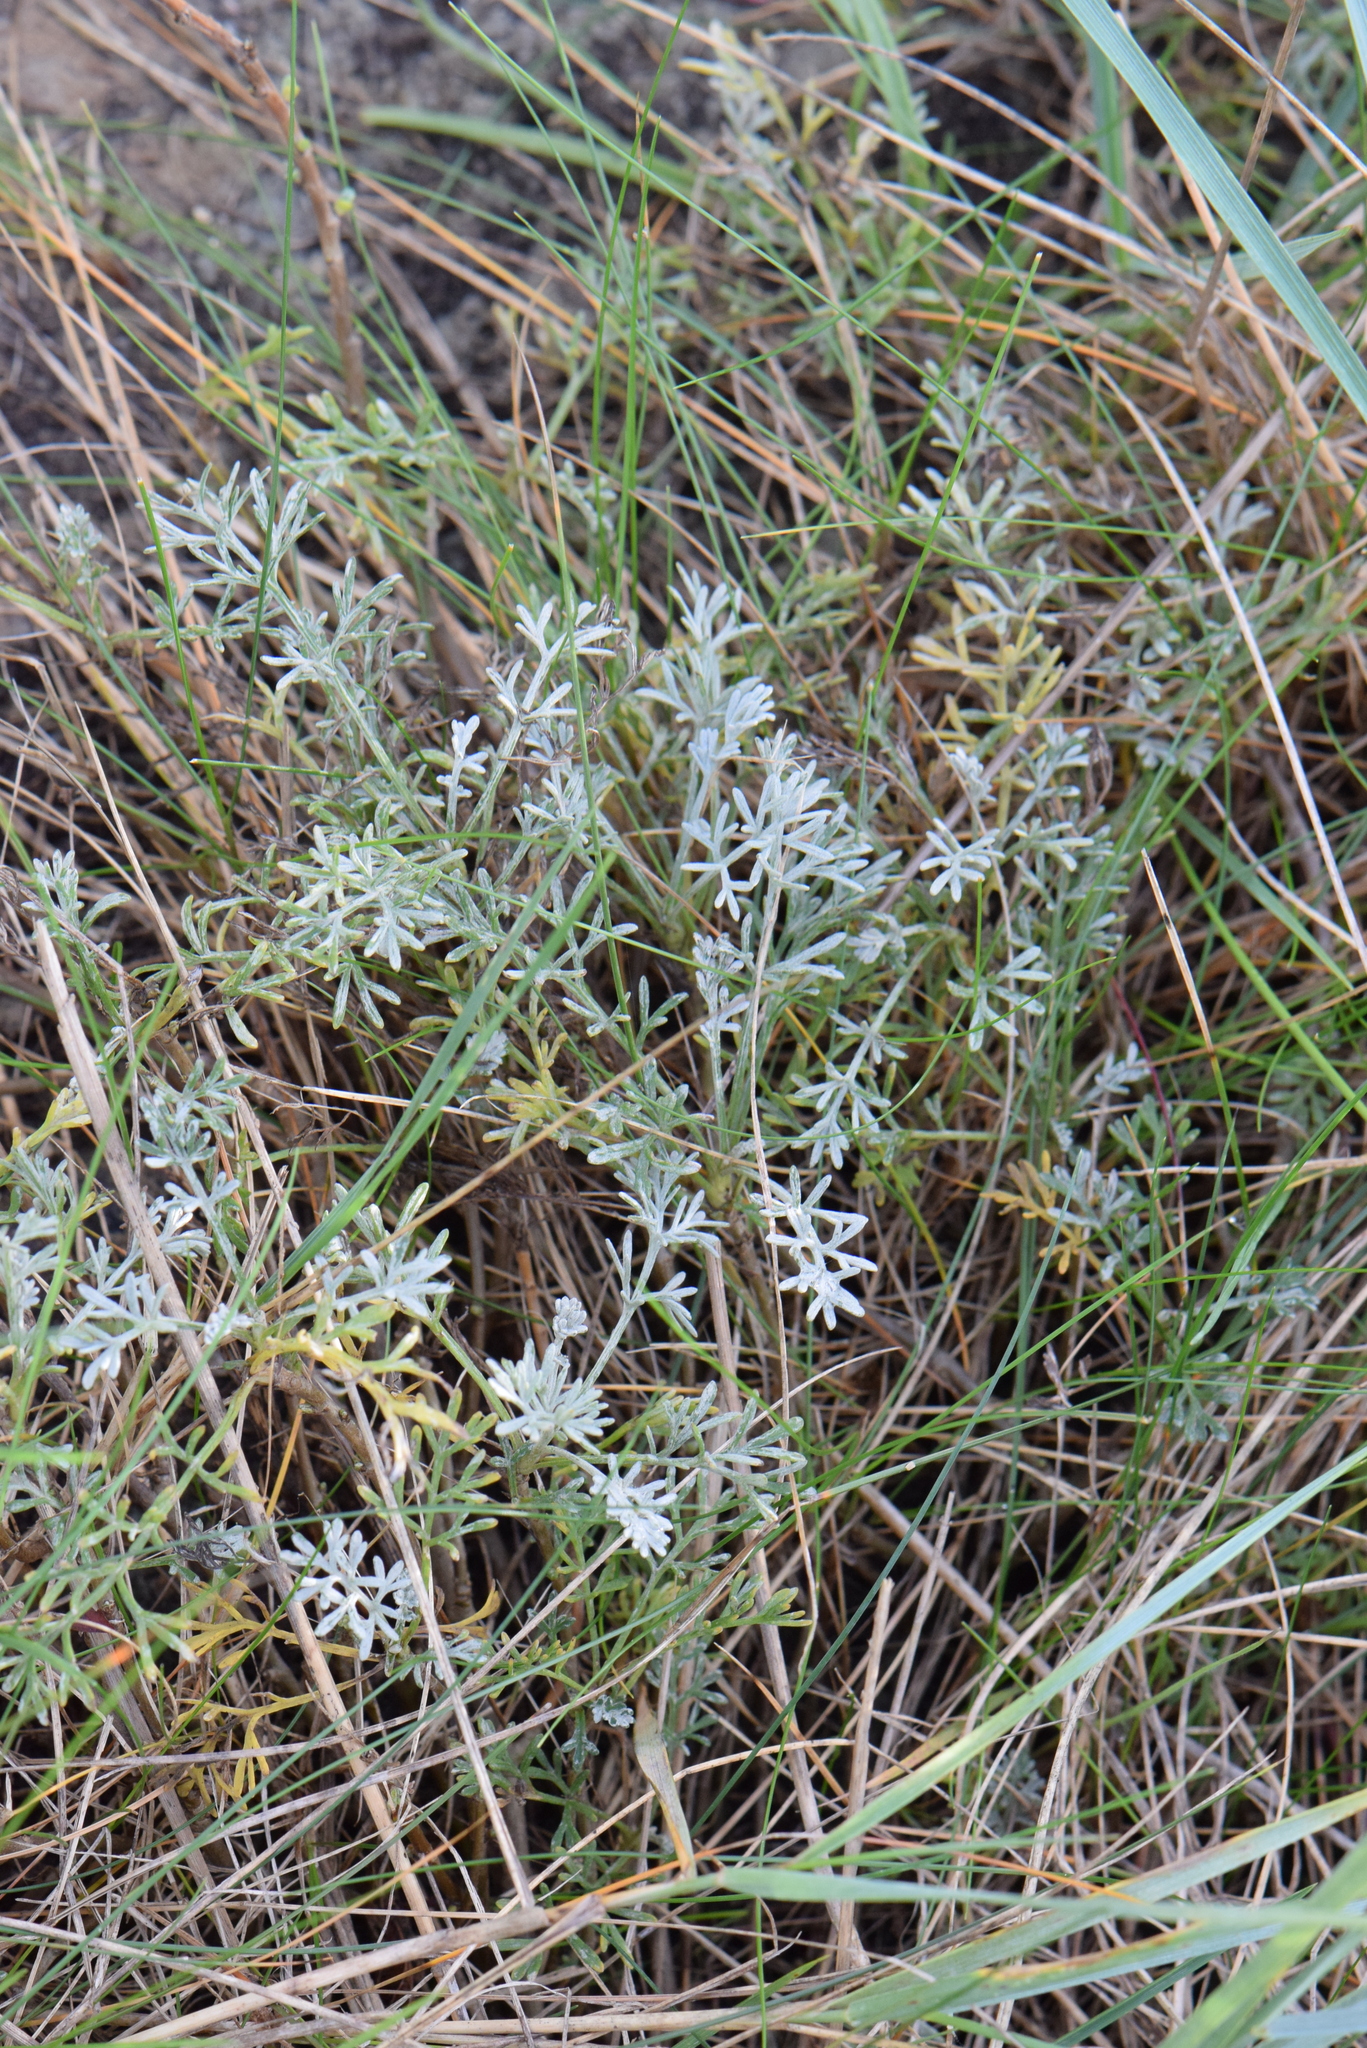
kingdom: Plantae
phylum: Tracheophyta
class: Magnoliopsida
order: Asterales
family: Asteraceae
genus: Artemisia
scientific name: Artemisia maritima
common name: Wormseed
